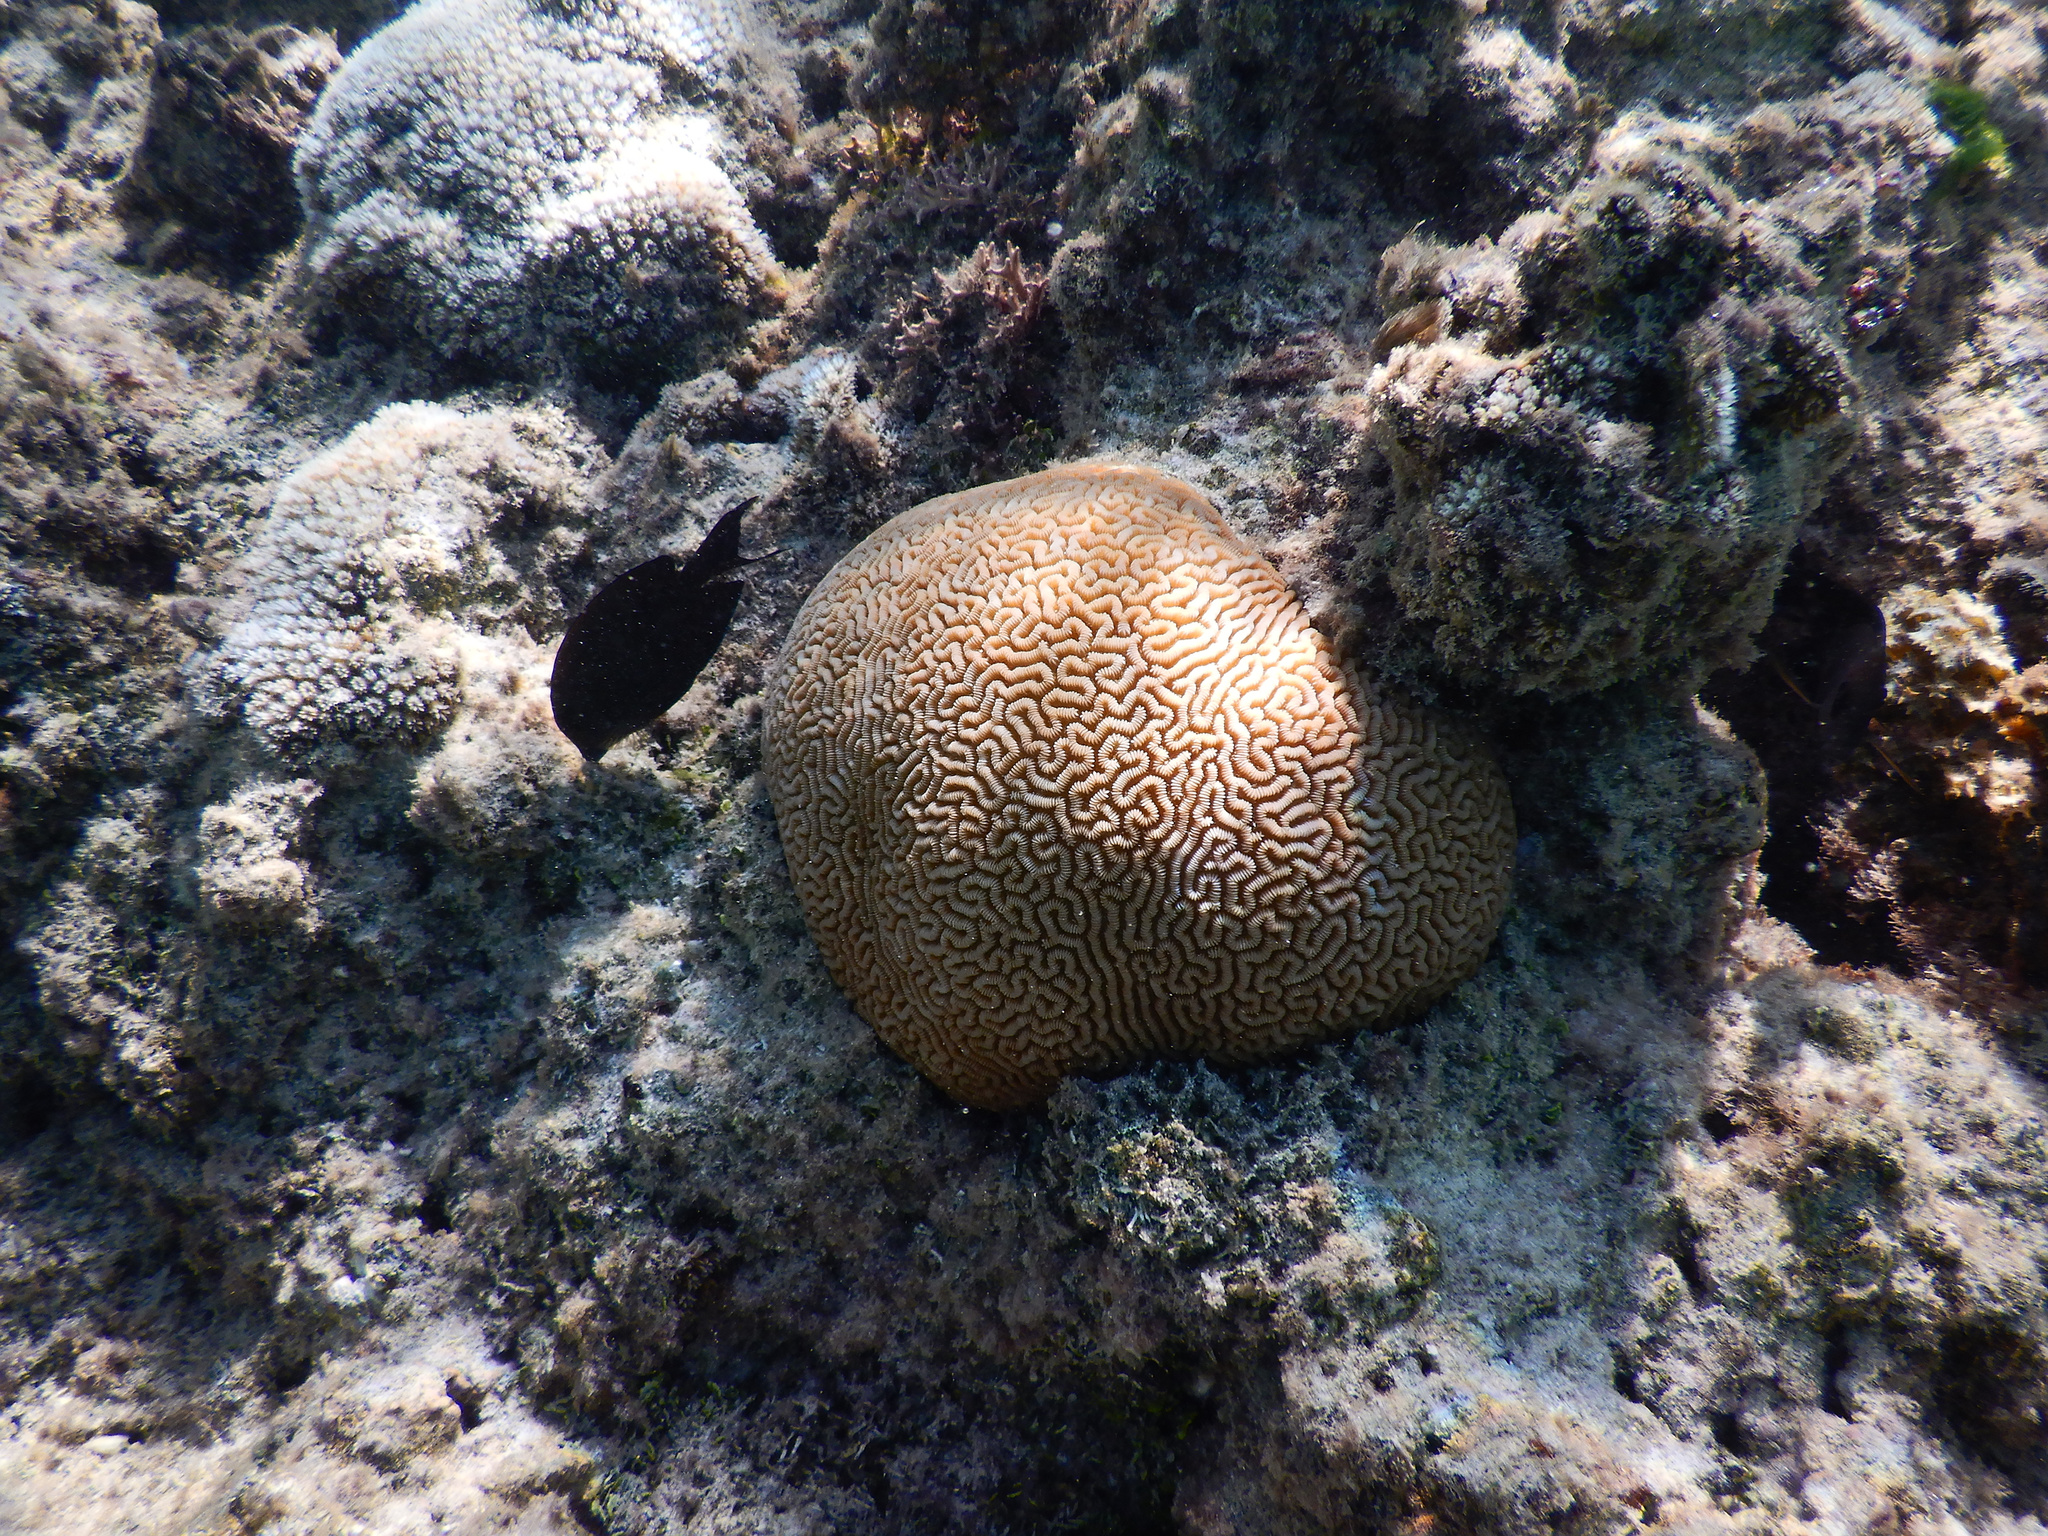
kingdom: Animalia
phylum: Cnidaria
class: Anthozoa
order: Scleractinia
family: Merulinidae
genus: Leptoria
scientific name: Leptoria phrygia
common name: Least valley coral
